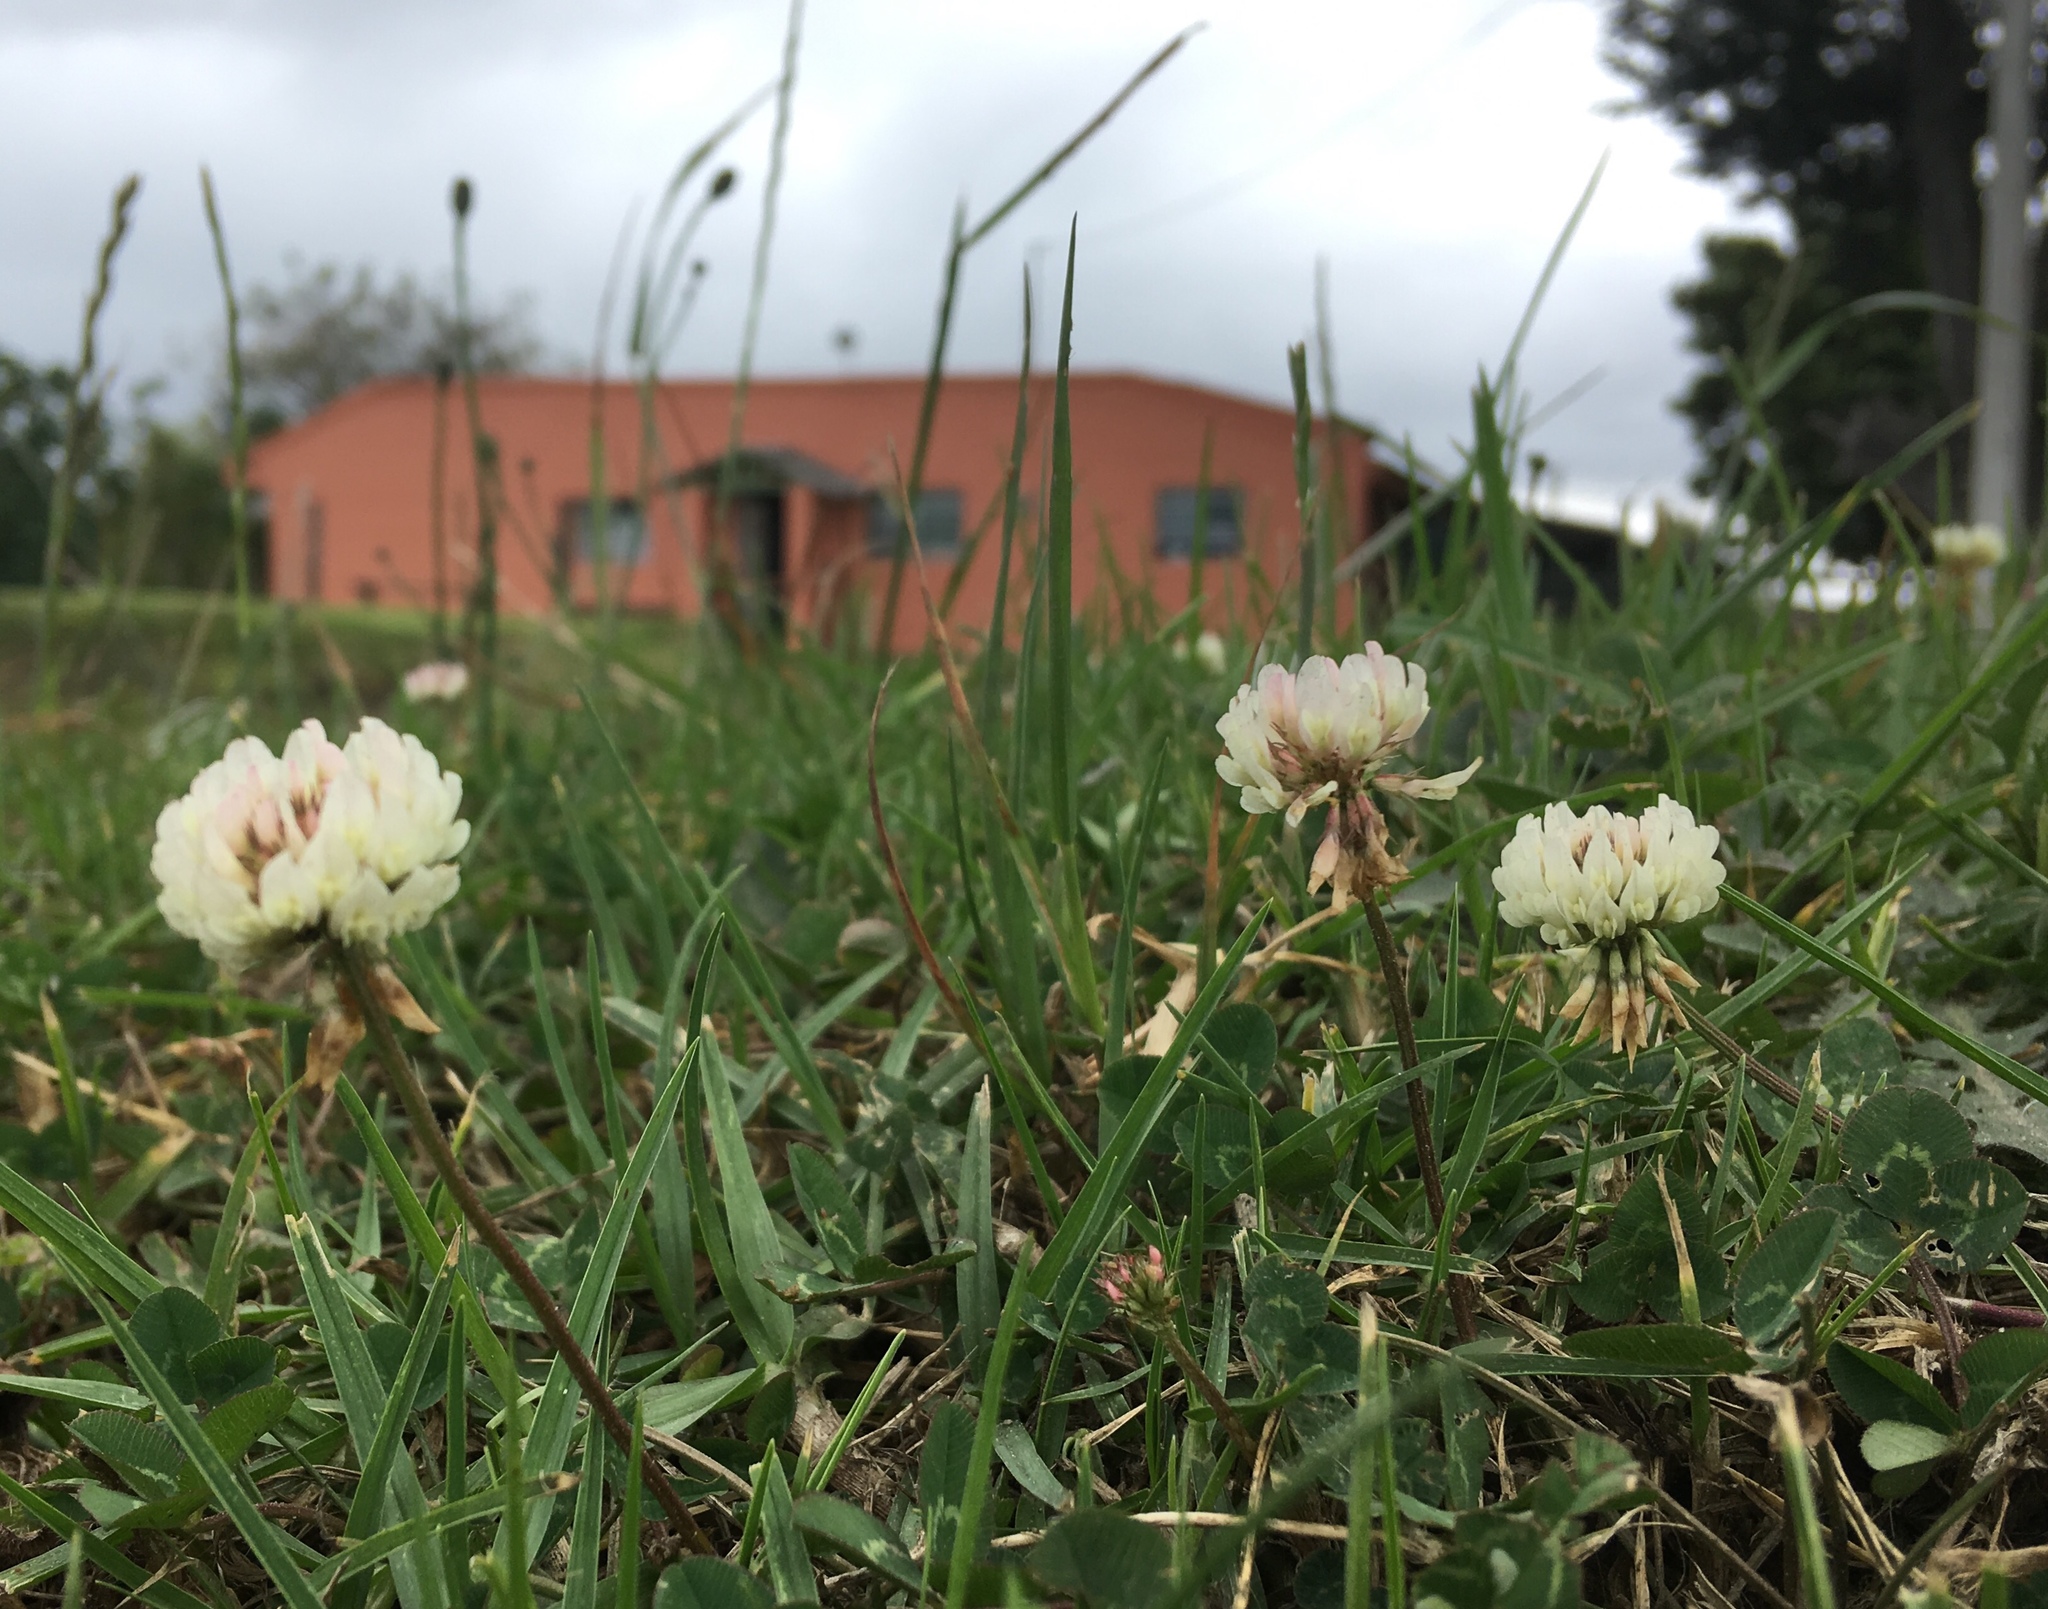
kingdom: Plantae
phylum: Tracheophyta
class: Magnoliopsida
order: Fabales
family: Fabaceae
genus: Trifolium
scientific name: Trifolium repens
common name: White clover
